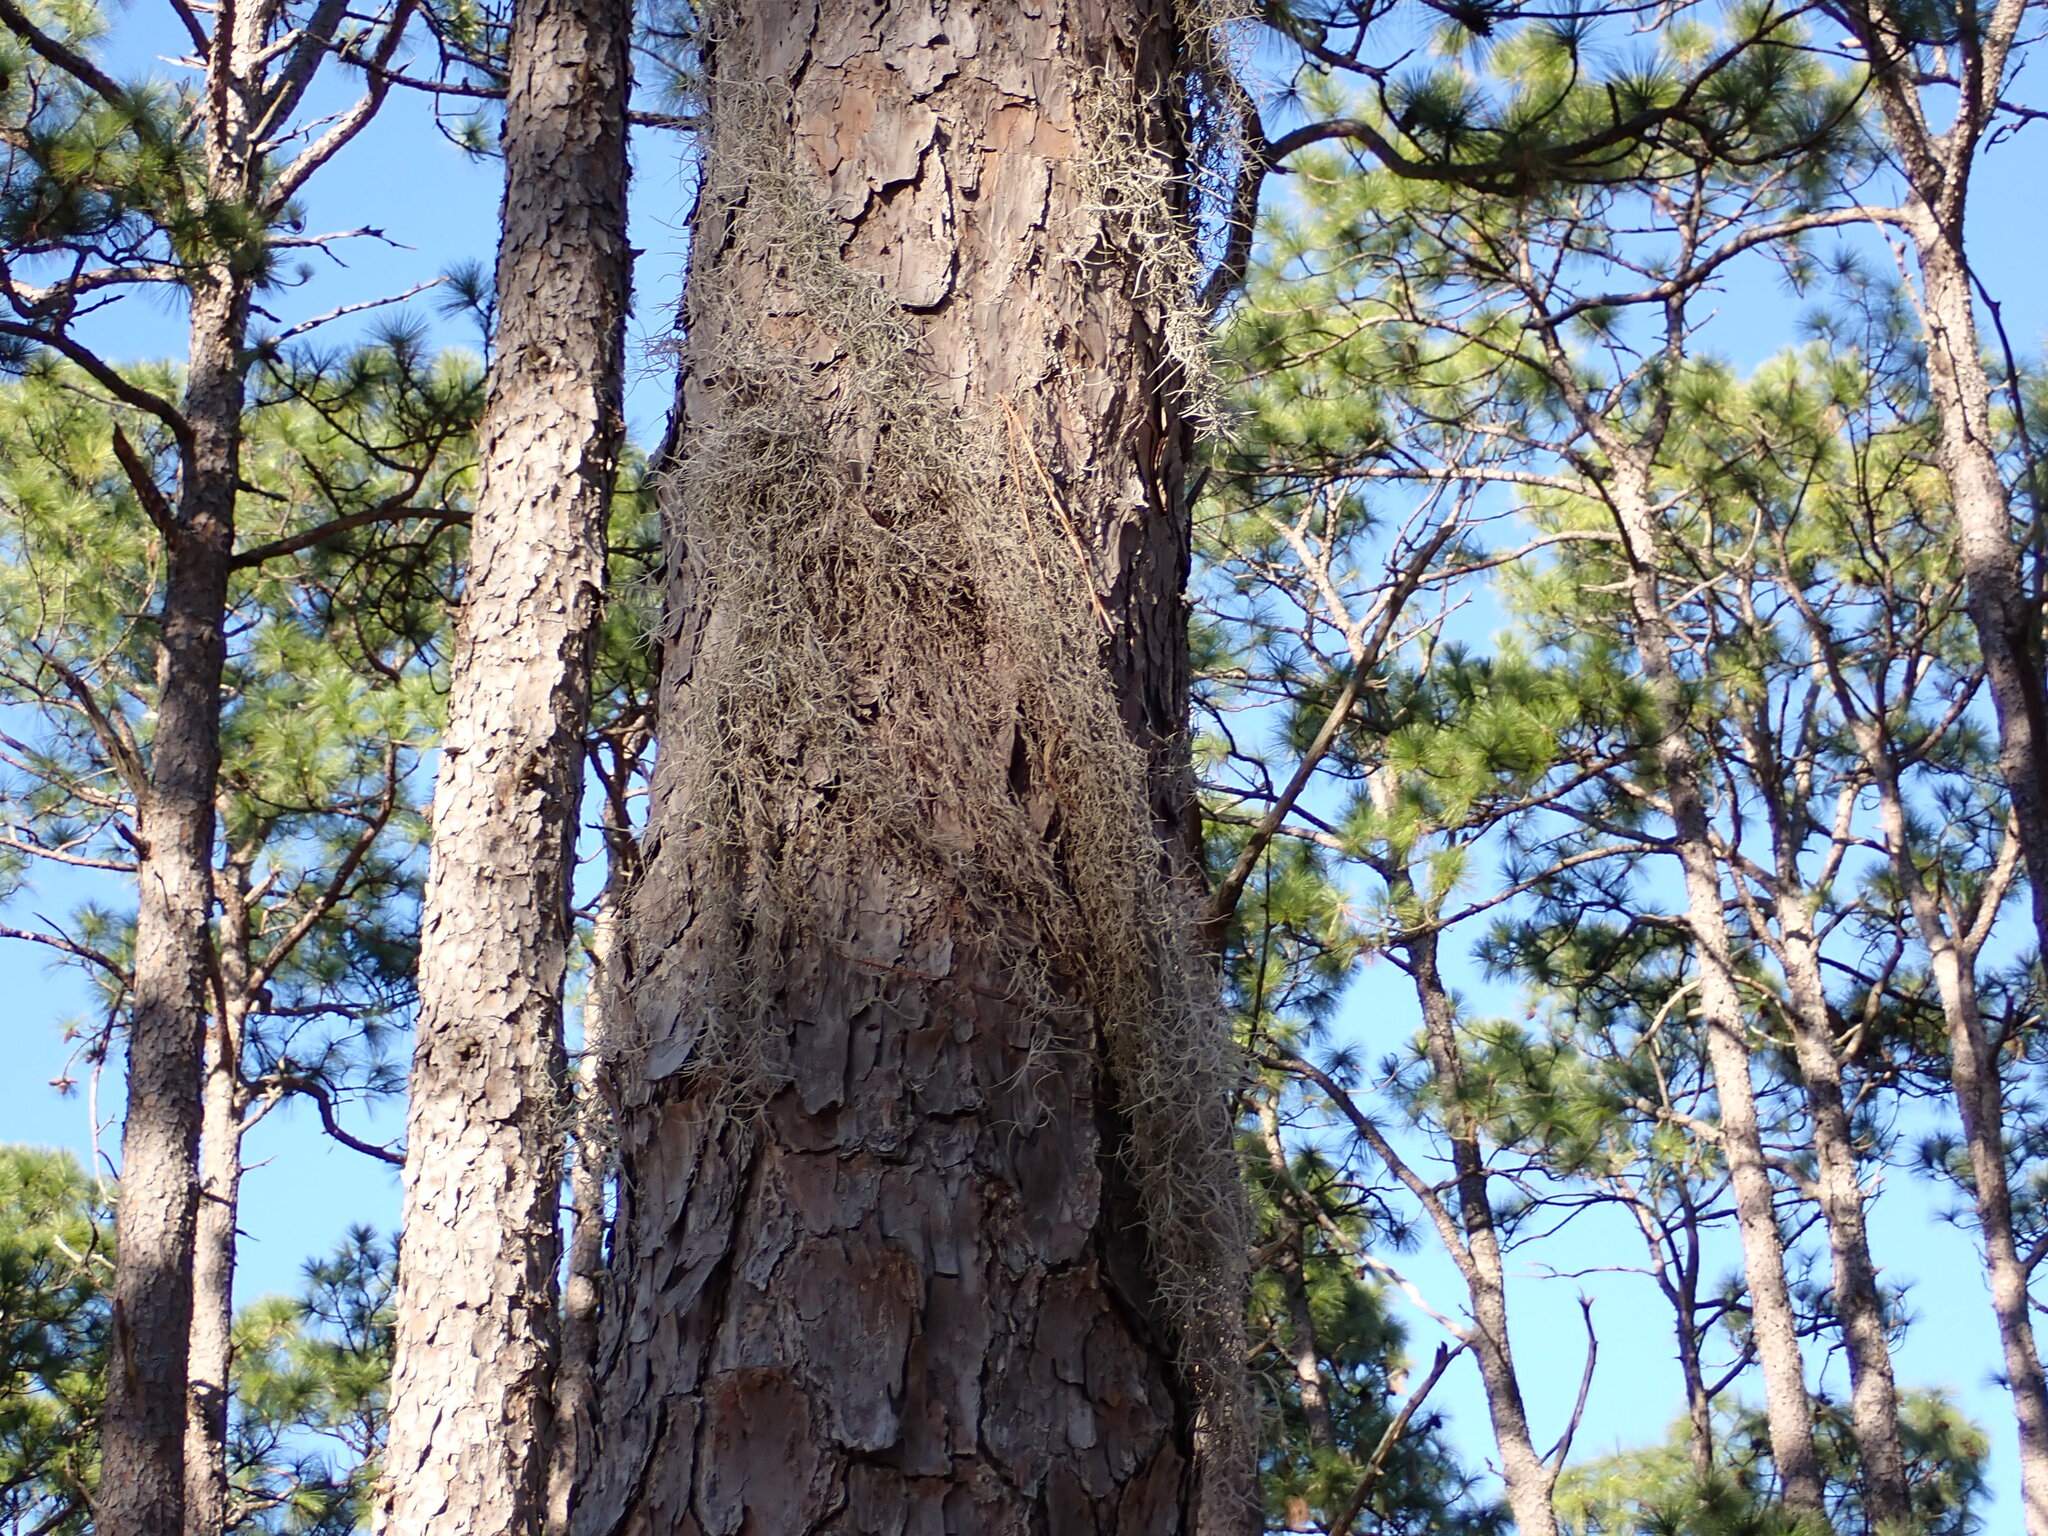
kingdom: Plantae
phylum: Tracheophyta
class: Liliopsida
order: Poales
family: Bromeliaceae
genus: Tillandsia
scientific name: Tillandsia usneoides
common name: Spanish moss
